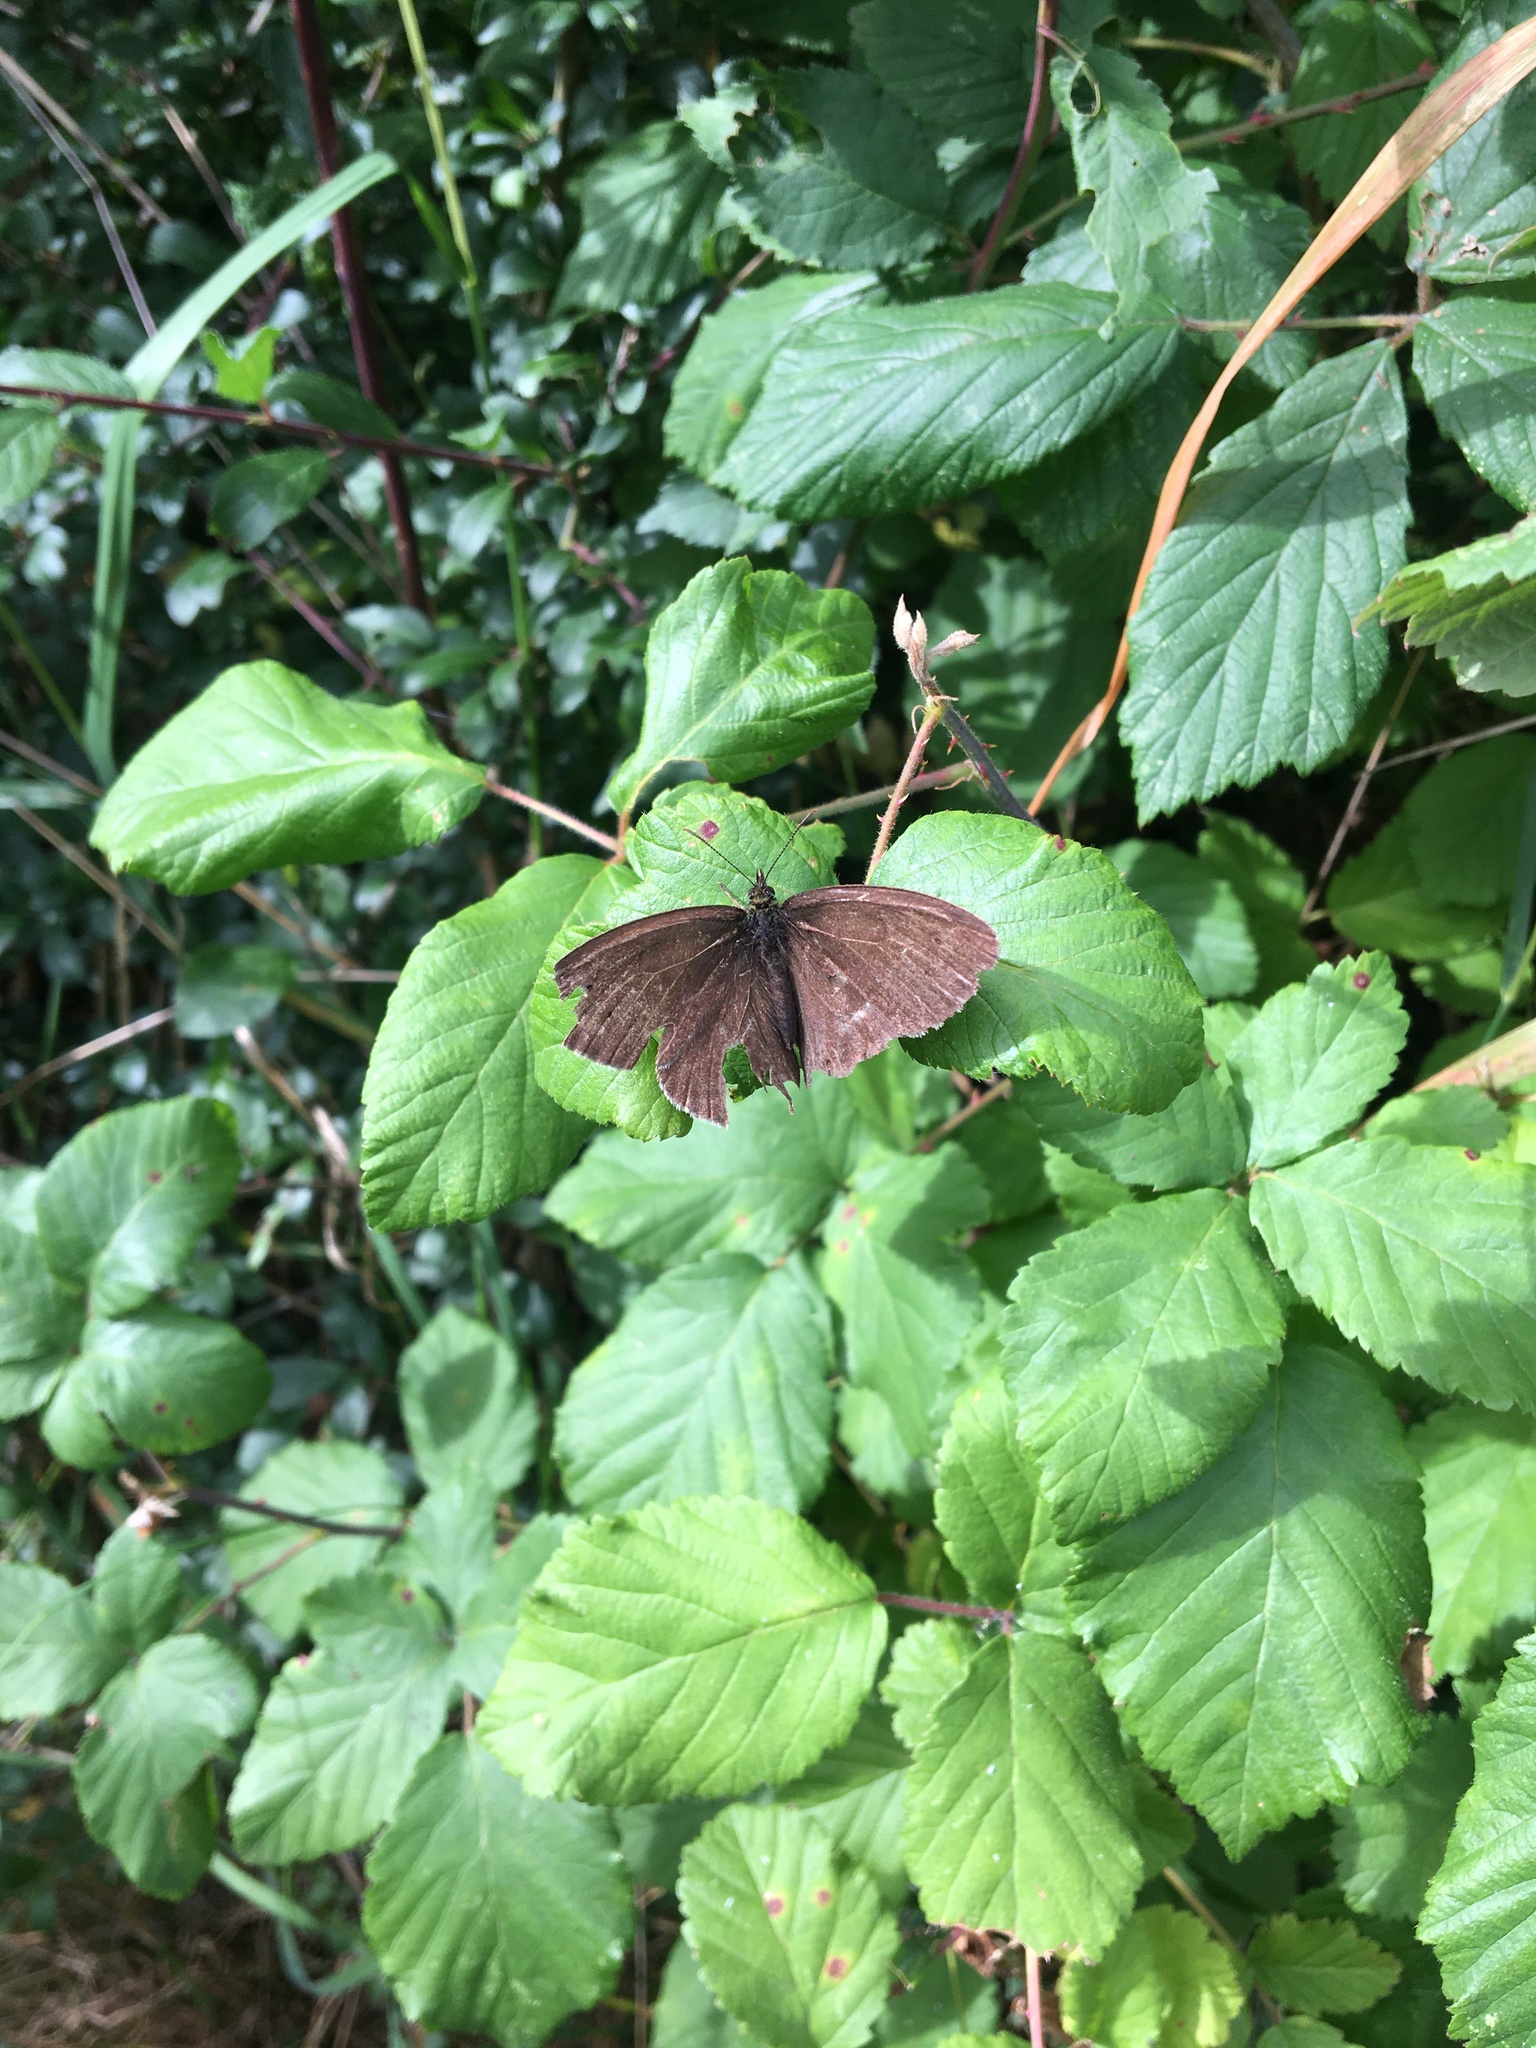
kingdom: Animalia
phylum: Arthropoda
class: Insecta
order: Lepidoptera
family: Nymphalidae
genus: Aphantopus
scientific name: Aphantopus hyperantus
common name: Ringlet
